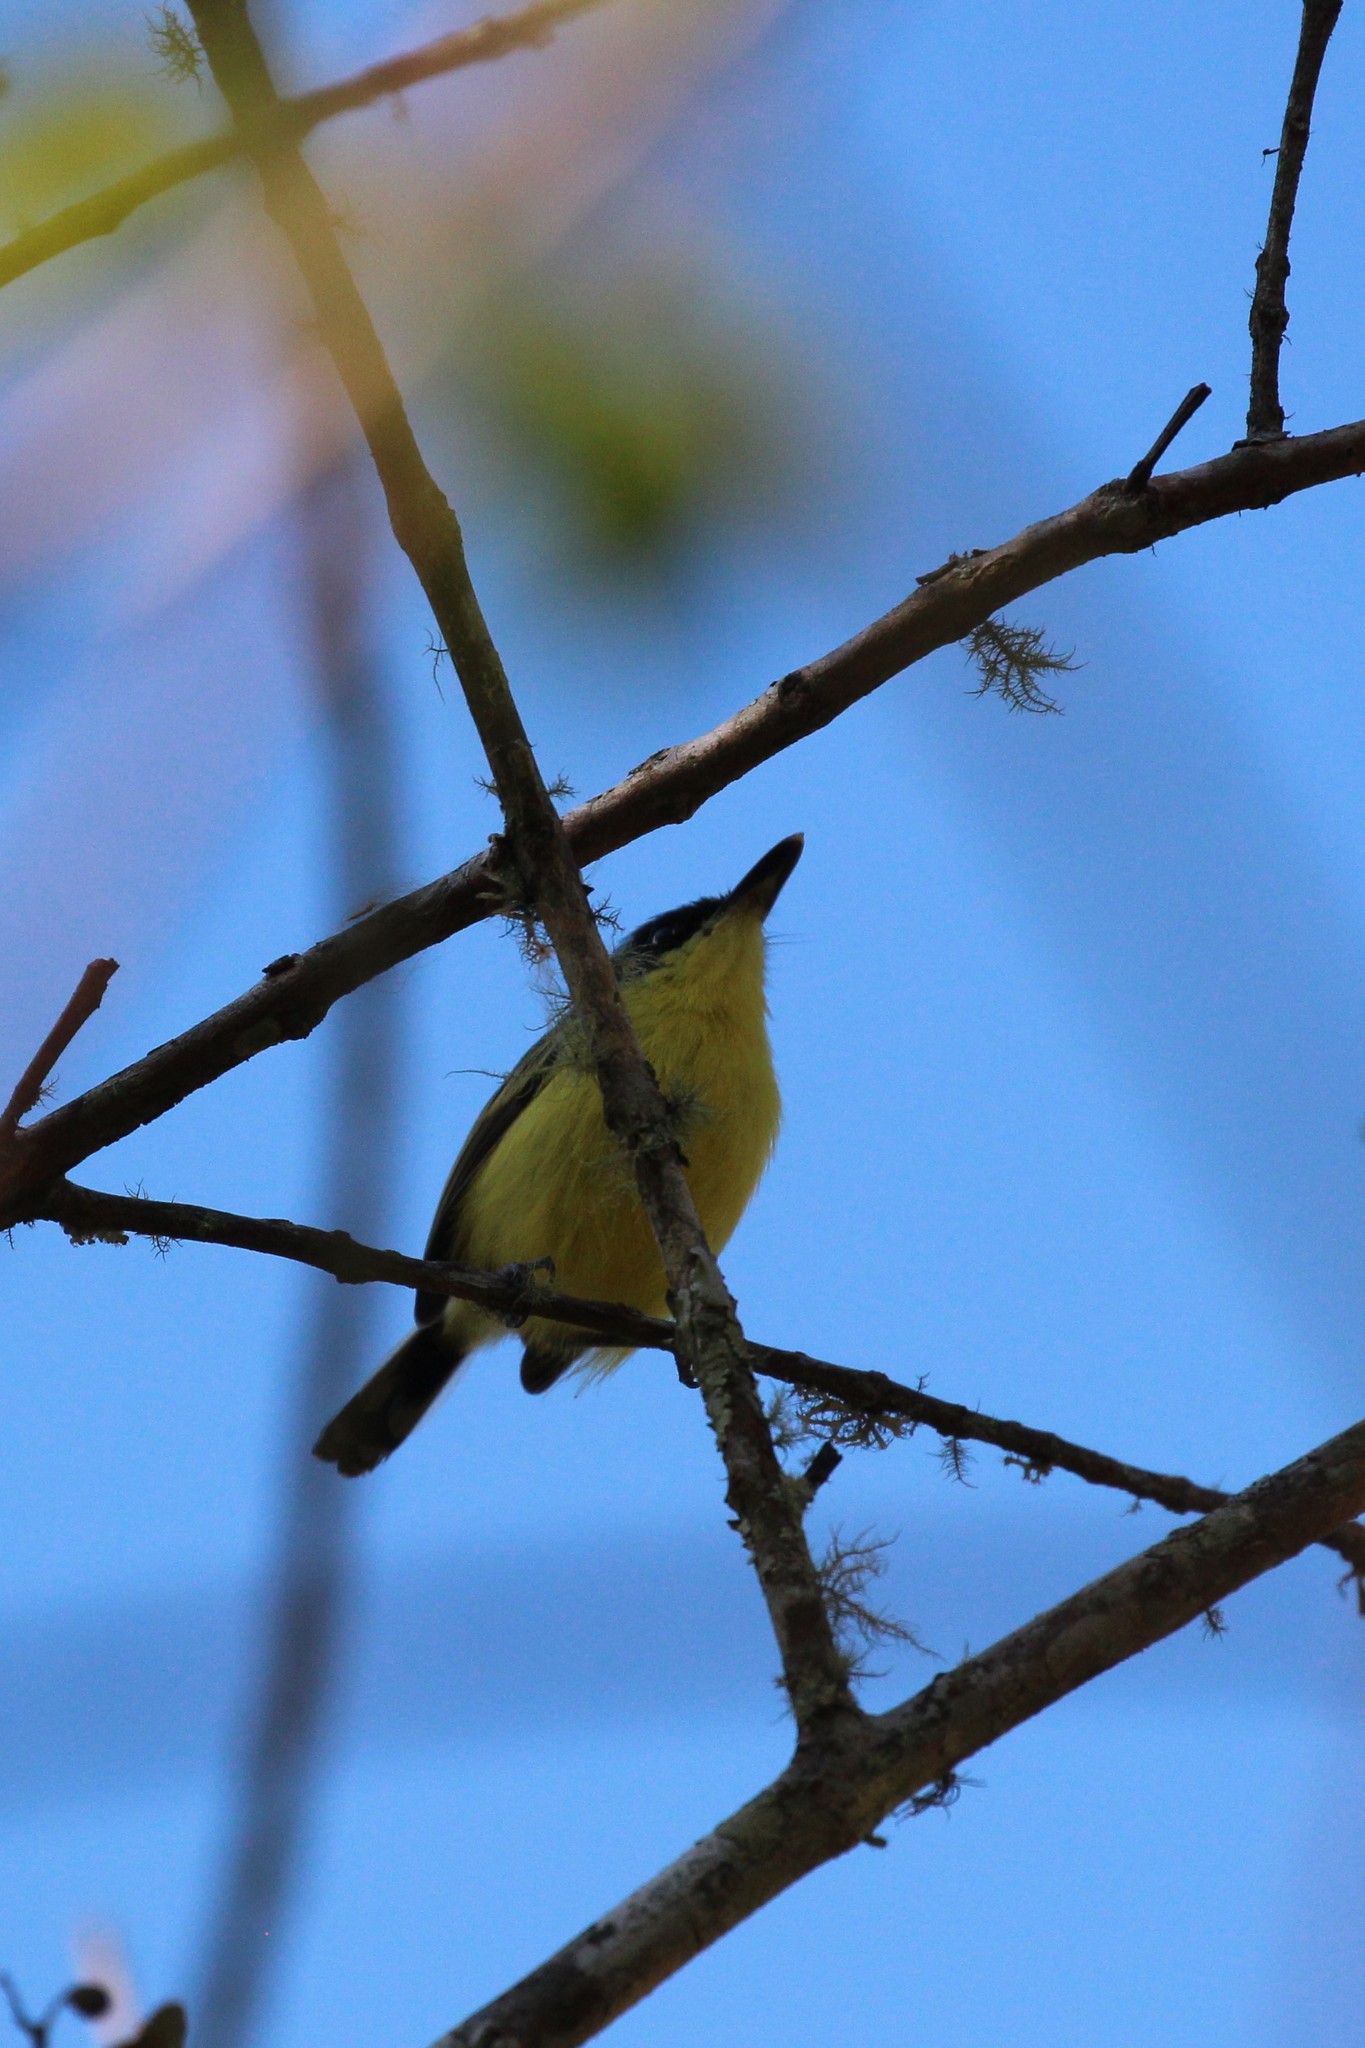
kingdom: Animalia
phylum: Chordata
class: Aves
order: Passeriformes
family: Tyrannidae
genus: Todirostrum
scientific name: Todirostrum cinereum
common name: Common tody-flycatcher
